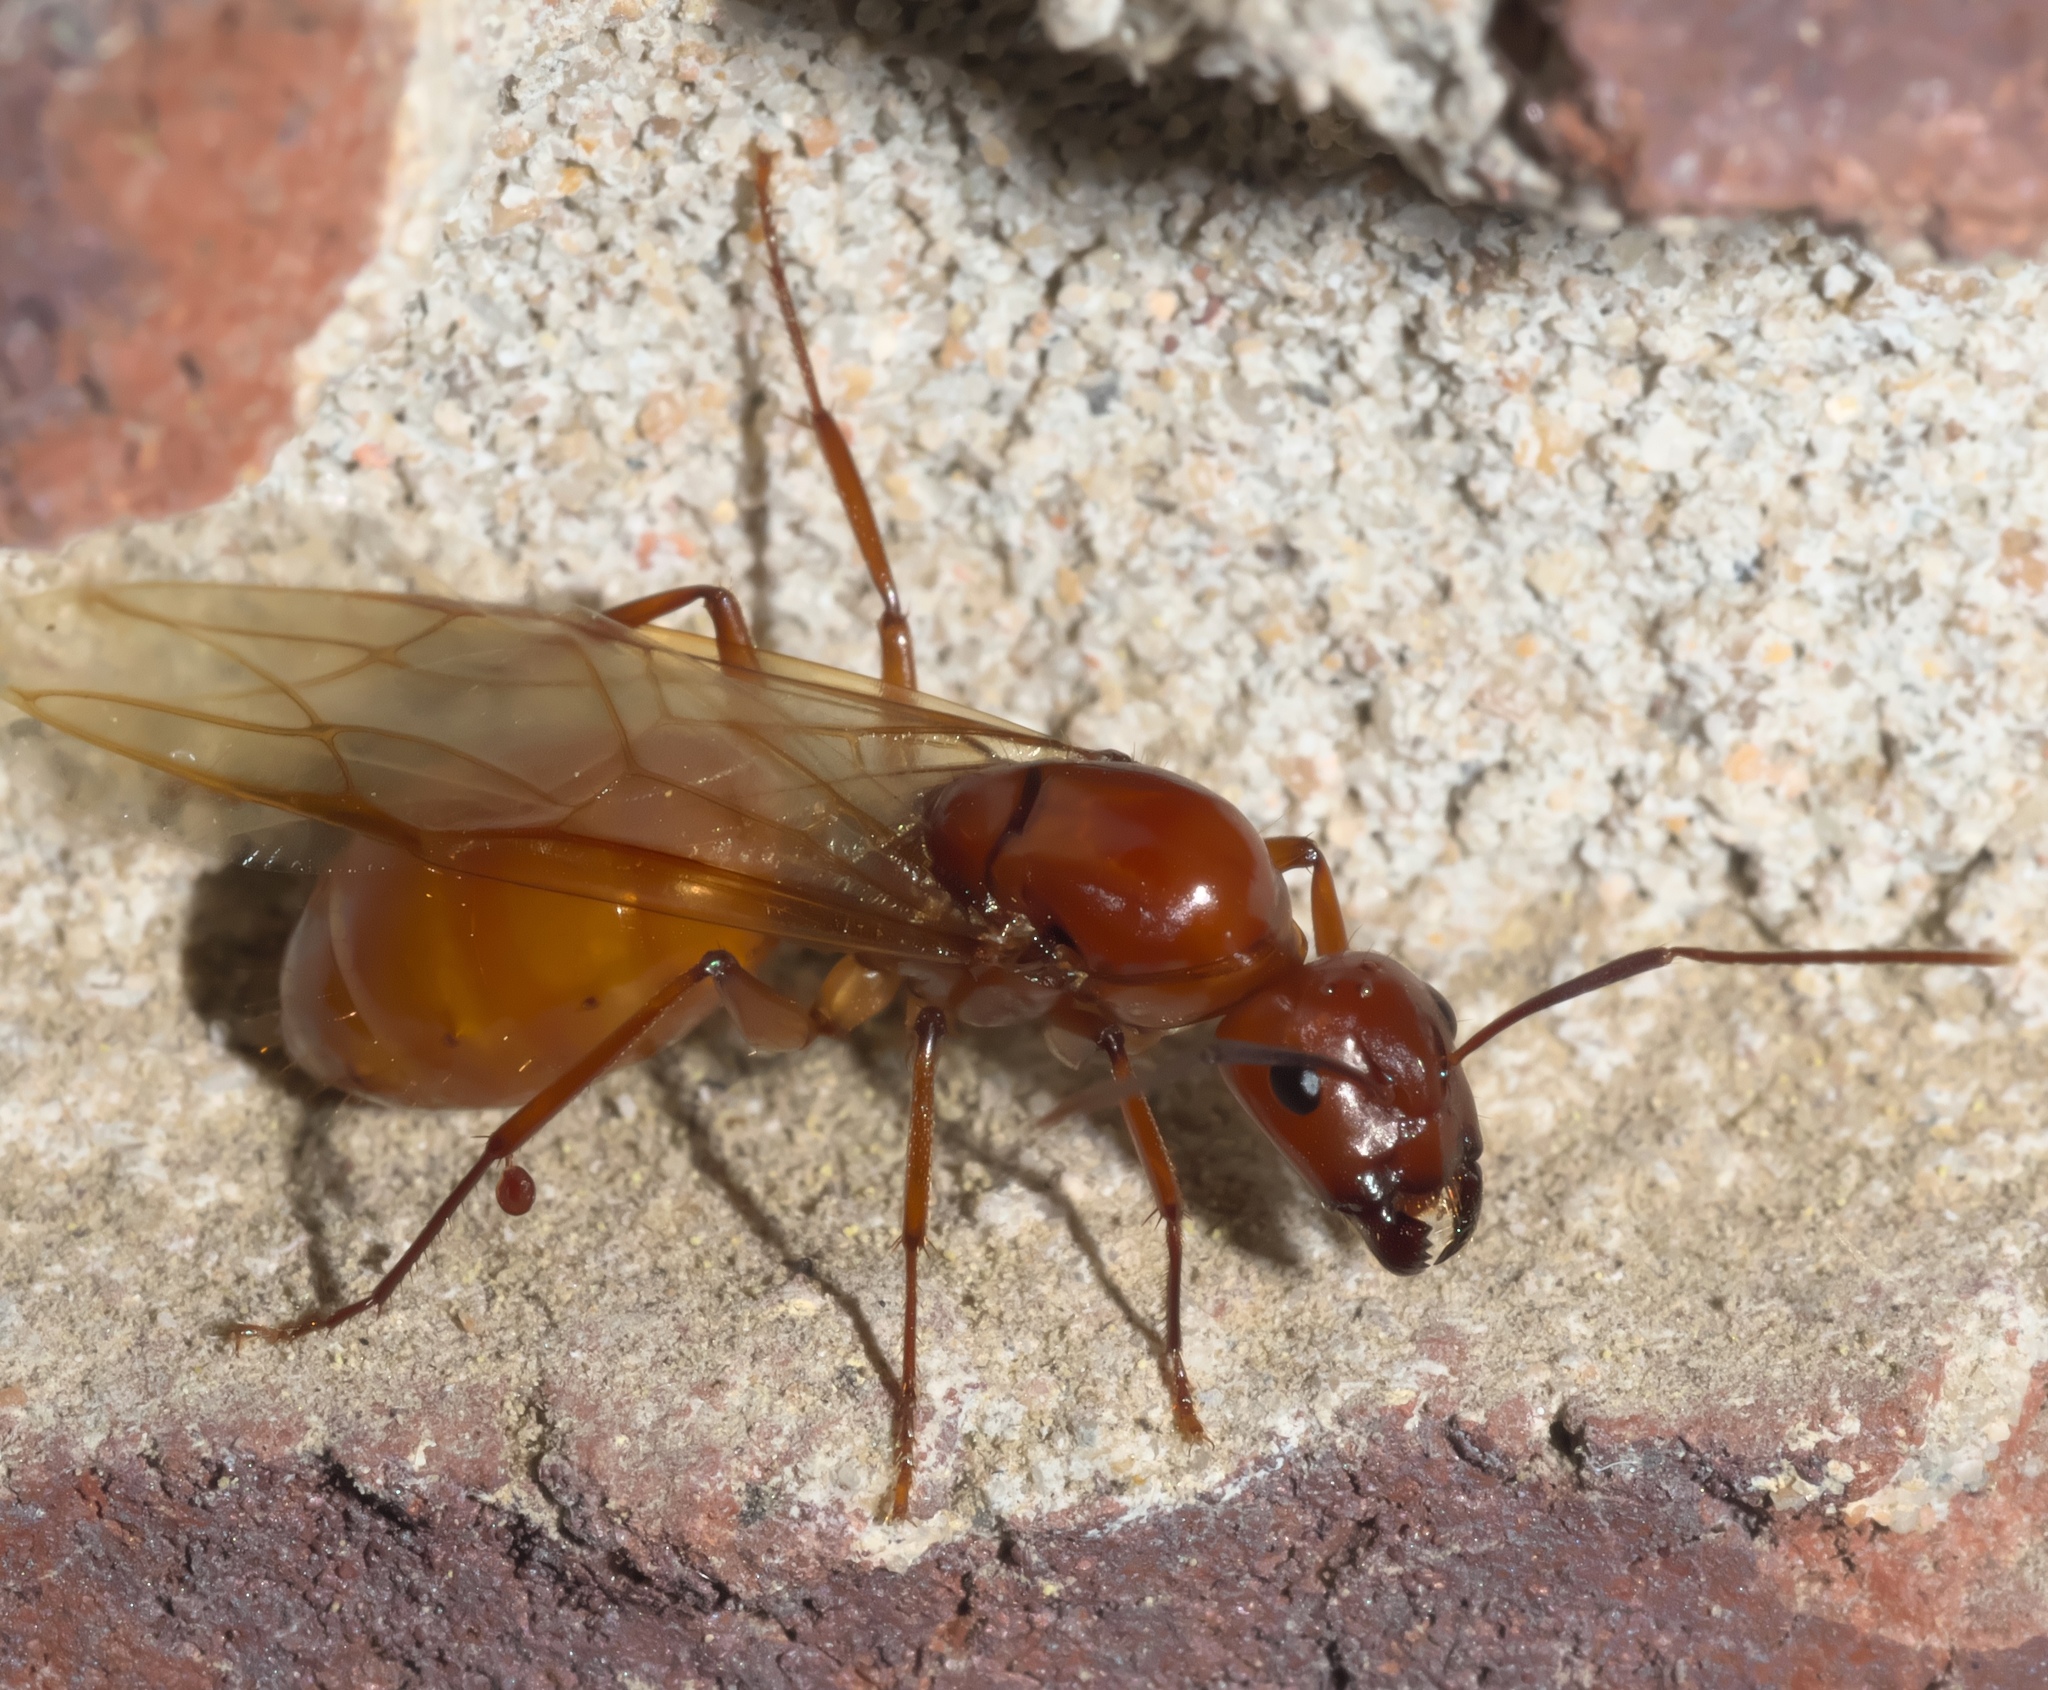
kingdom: Animalia
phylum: Arthropoda
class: Insecta
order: Hymenoptera
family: Formicidae
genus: Camponotus
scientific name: Camponotus castaneus
